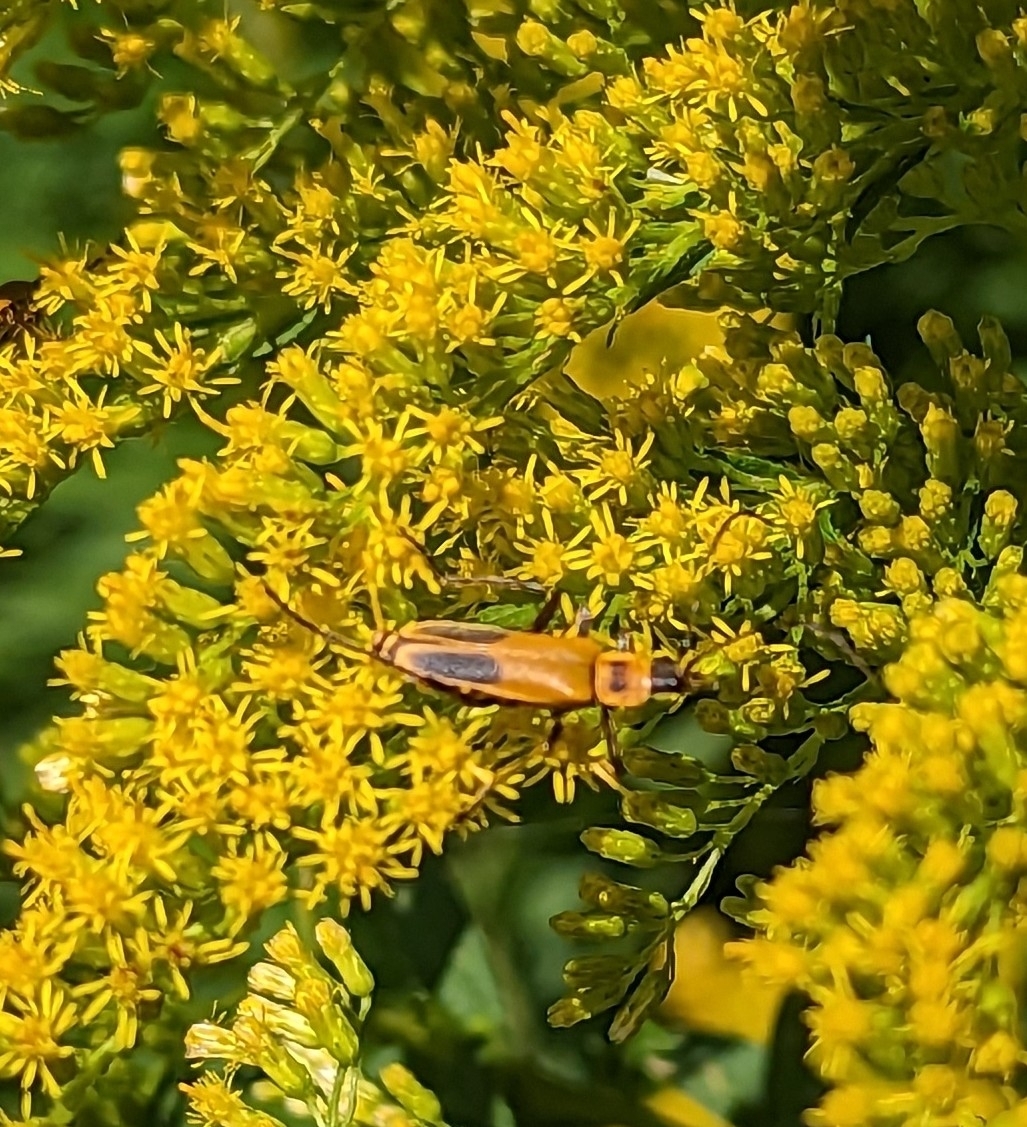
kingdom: Animalia
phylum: Arthropoda
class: Insecta
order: Coleoptera
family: Cantharidae
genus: Chauliognathus
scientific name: Chauliognathus pensylvanicus
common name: Goldenrod soldier beetle
